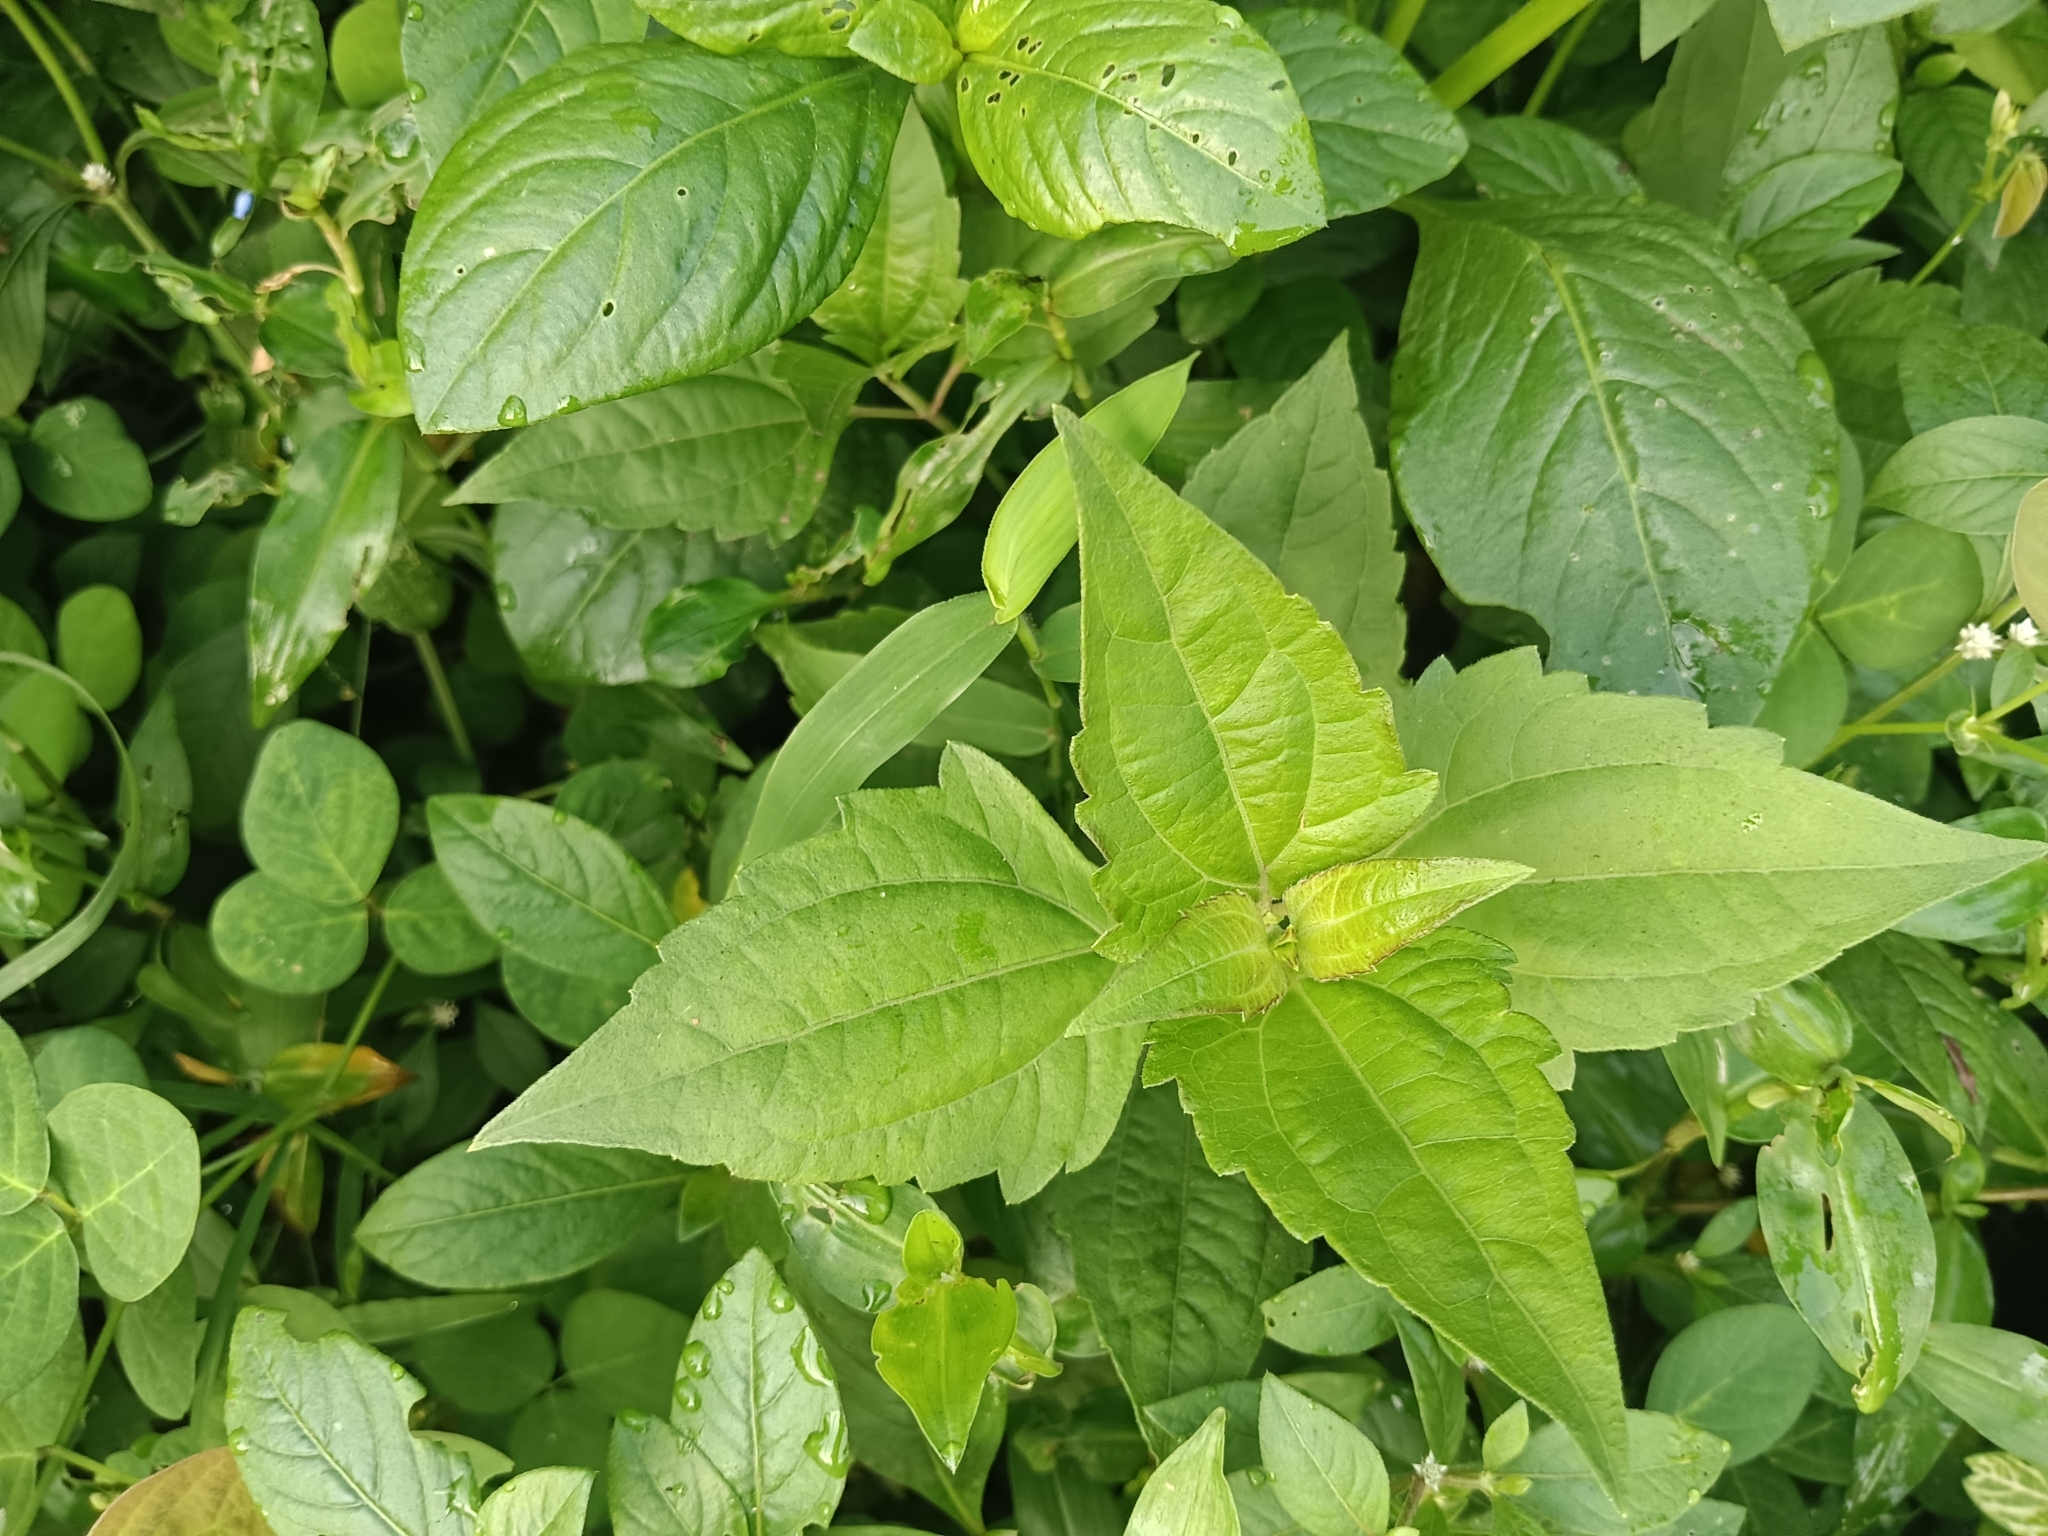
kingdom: Plantae
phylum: Tracheophyta
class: Magnoliopsida
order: Asterales
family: Asteraceae
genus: Chromolaena
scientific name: Chromolaena odorata
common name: Siamweed
